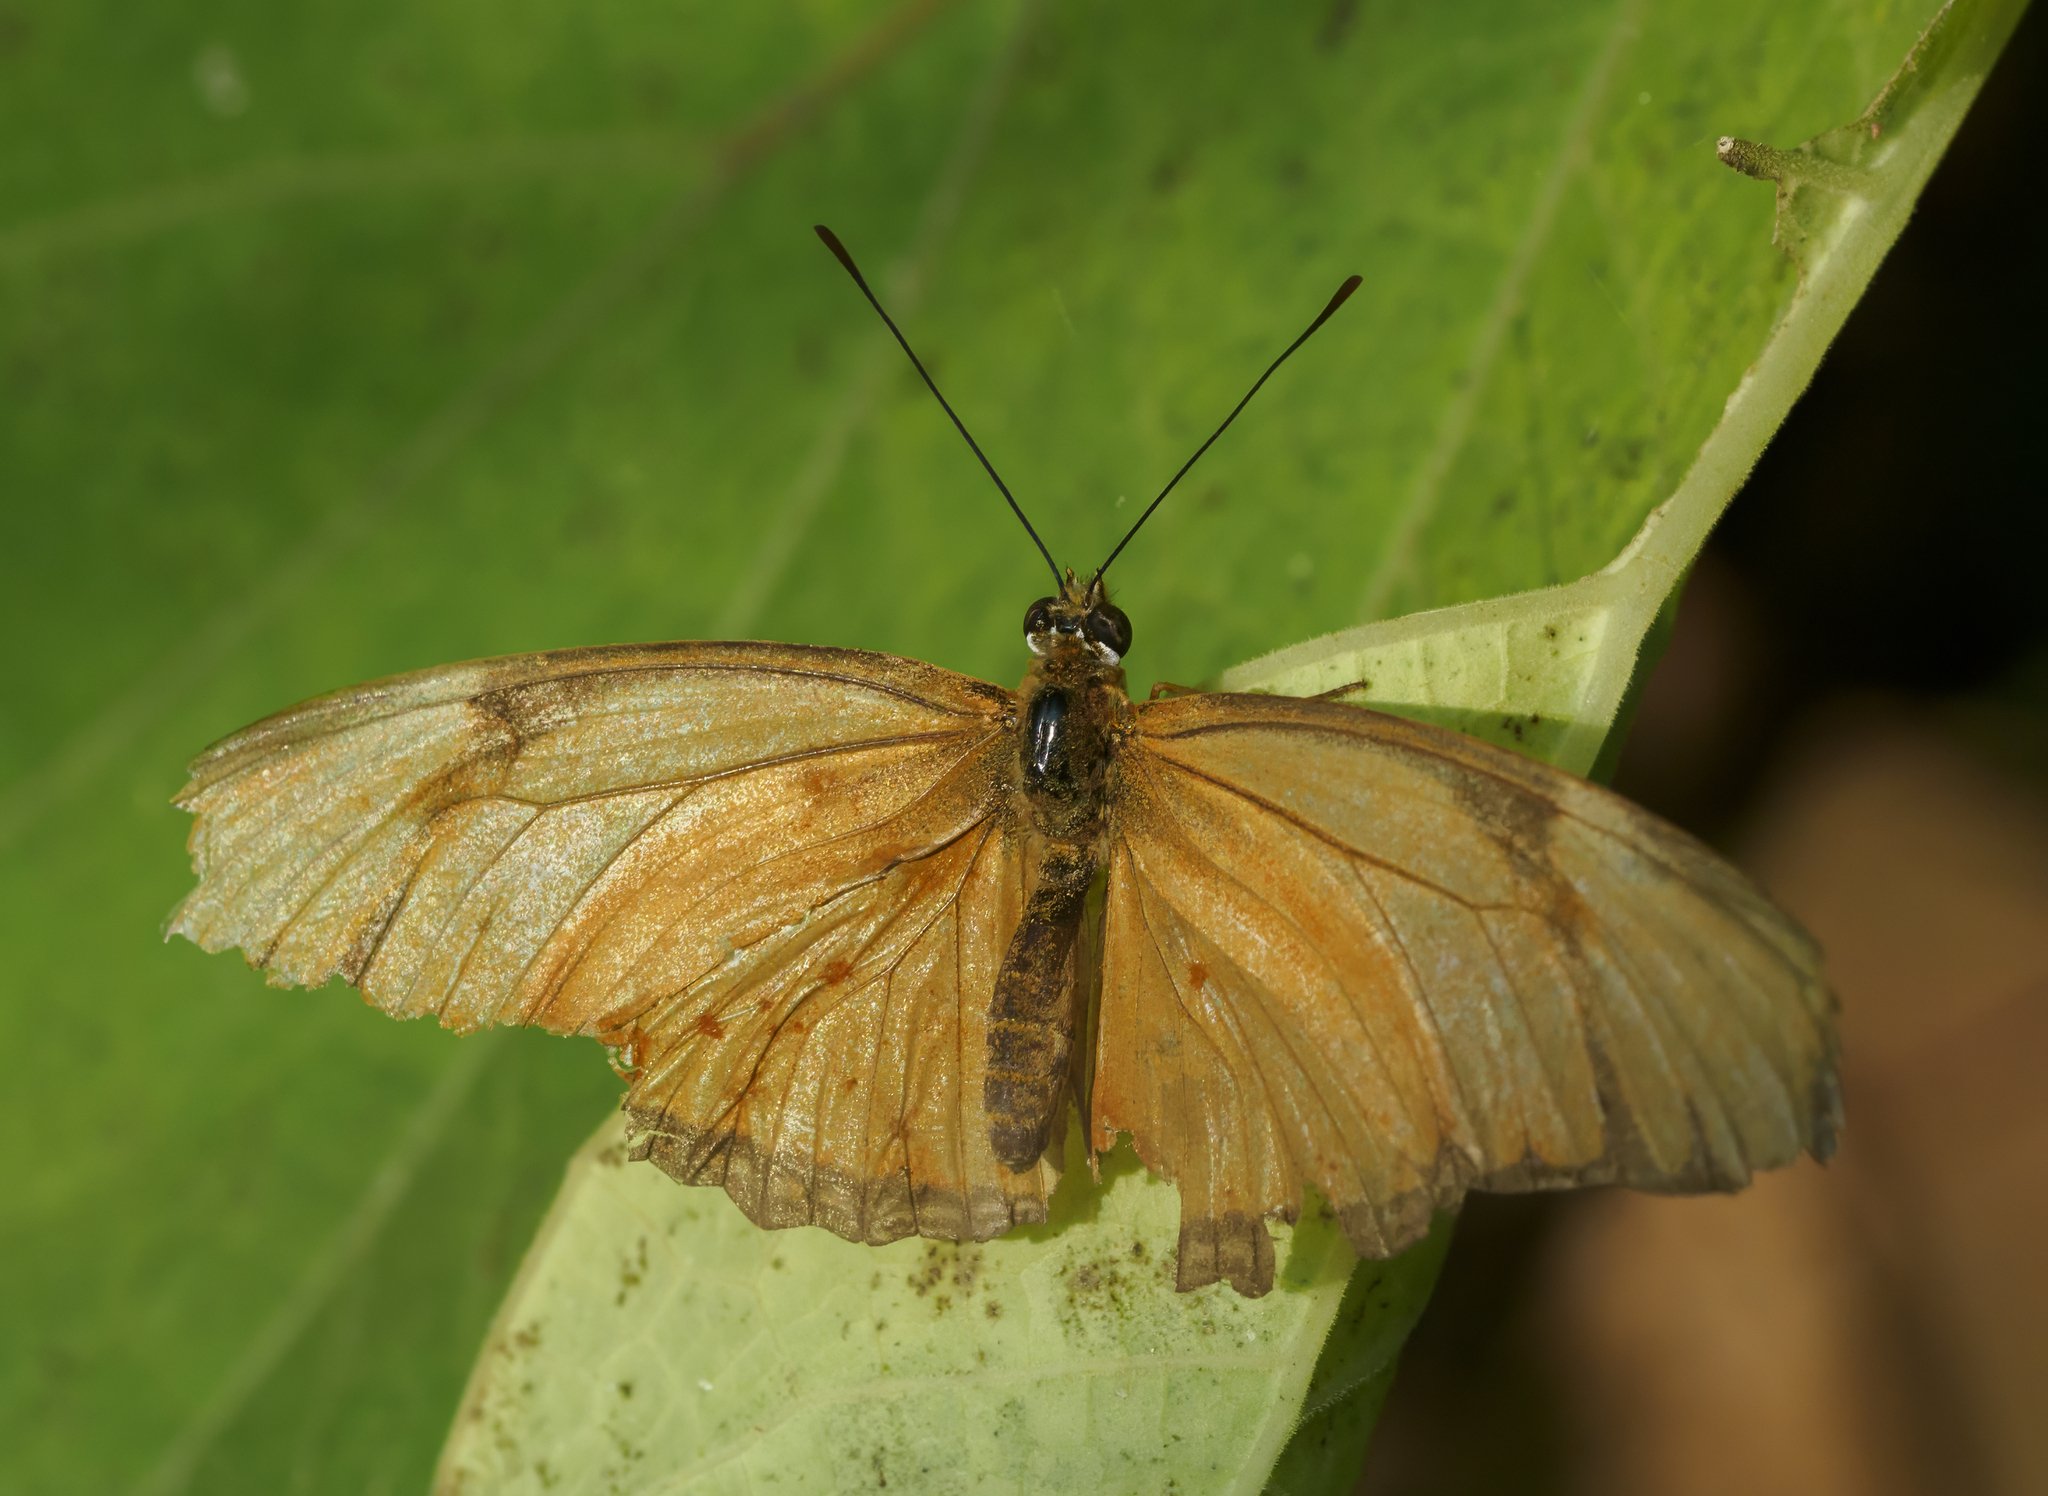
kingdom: Animalia
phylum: Arthropoda
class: Insecta
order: Lepidoptera
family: Nymphalidae
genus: Dryas
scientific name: Dryas iulia
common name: Flambeau
